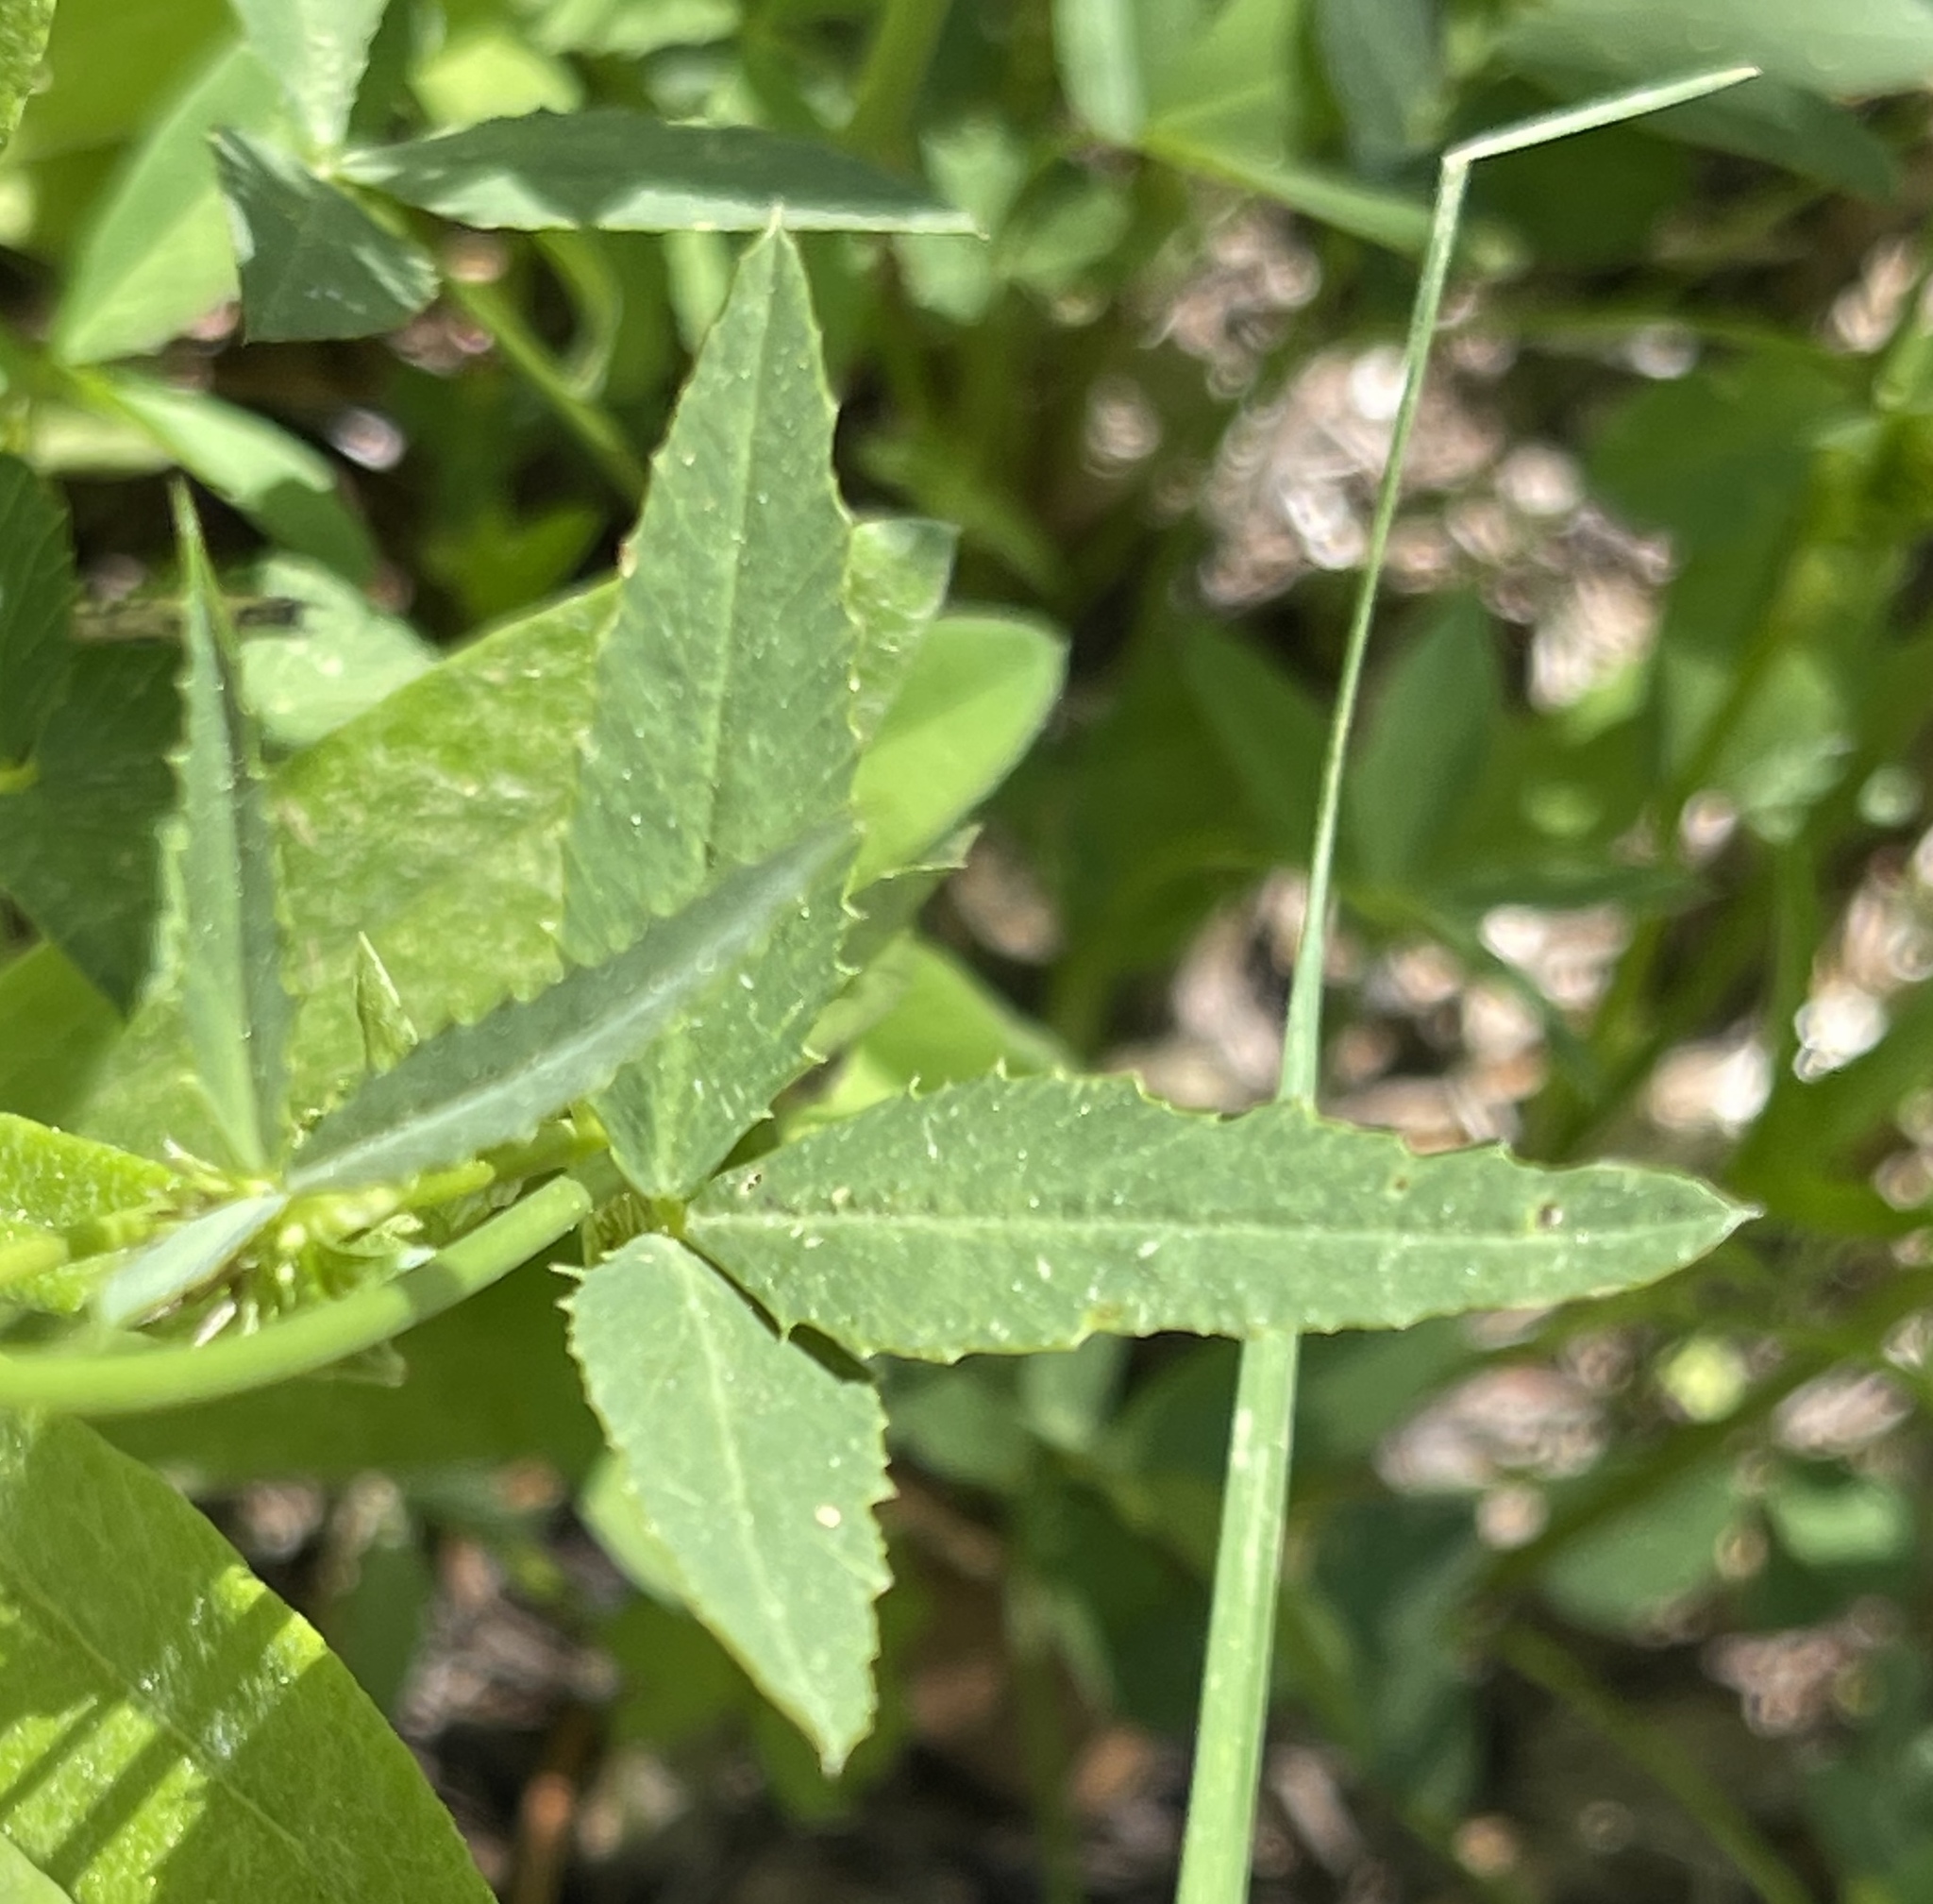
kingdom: Plantae
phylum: Tracheophyta
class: Magnoliopsida
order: Fabales
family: Fabaceae
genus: Trifolium
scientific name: Trifolium productum
